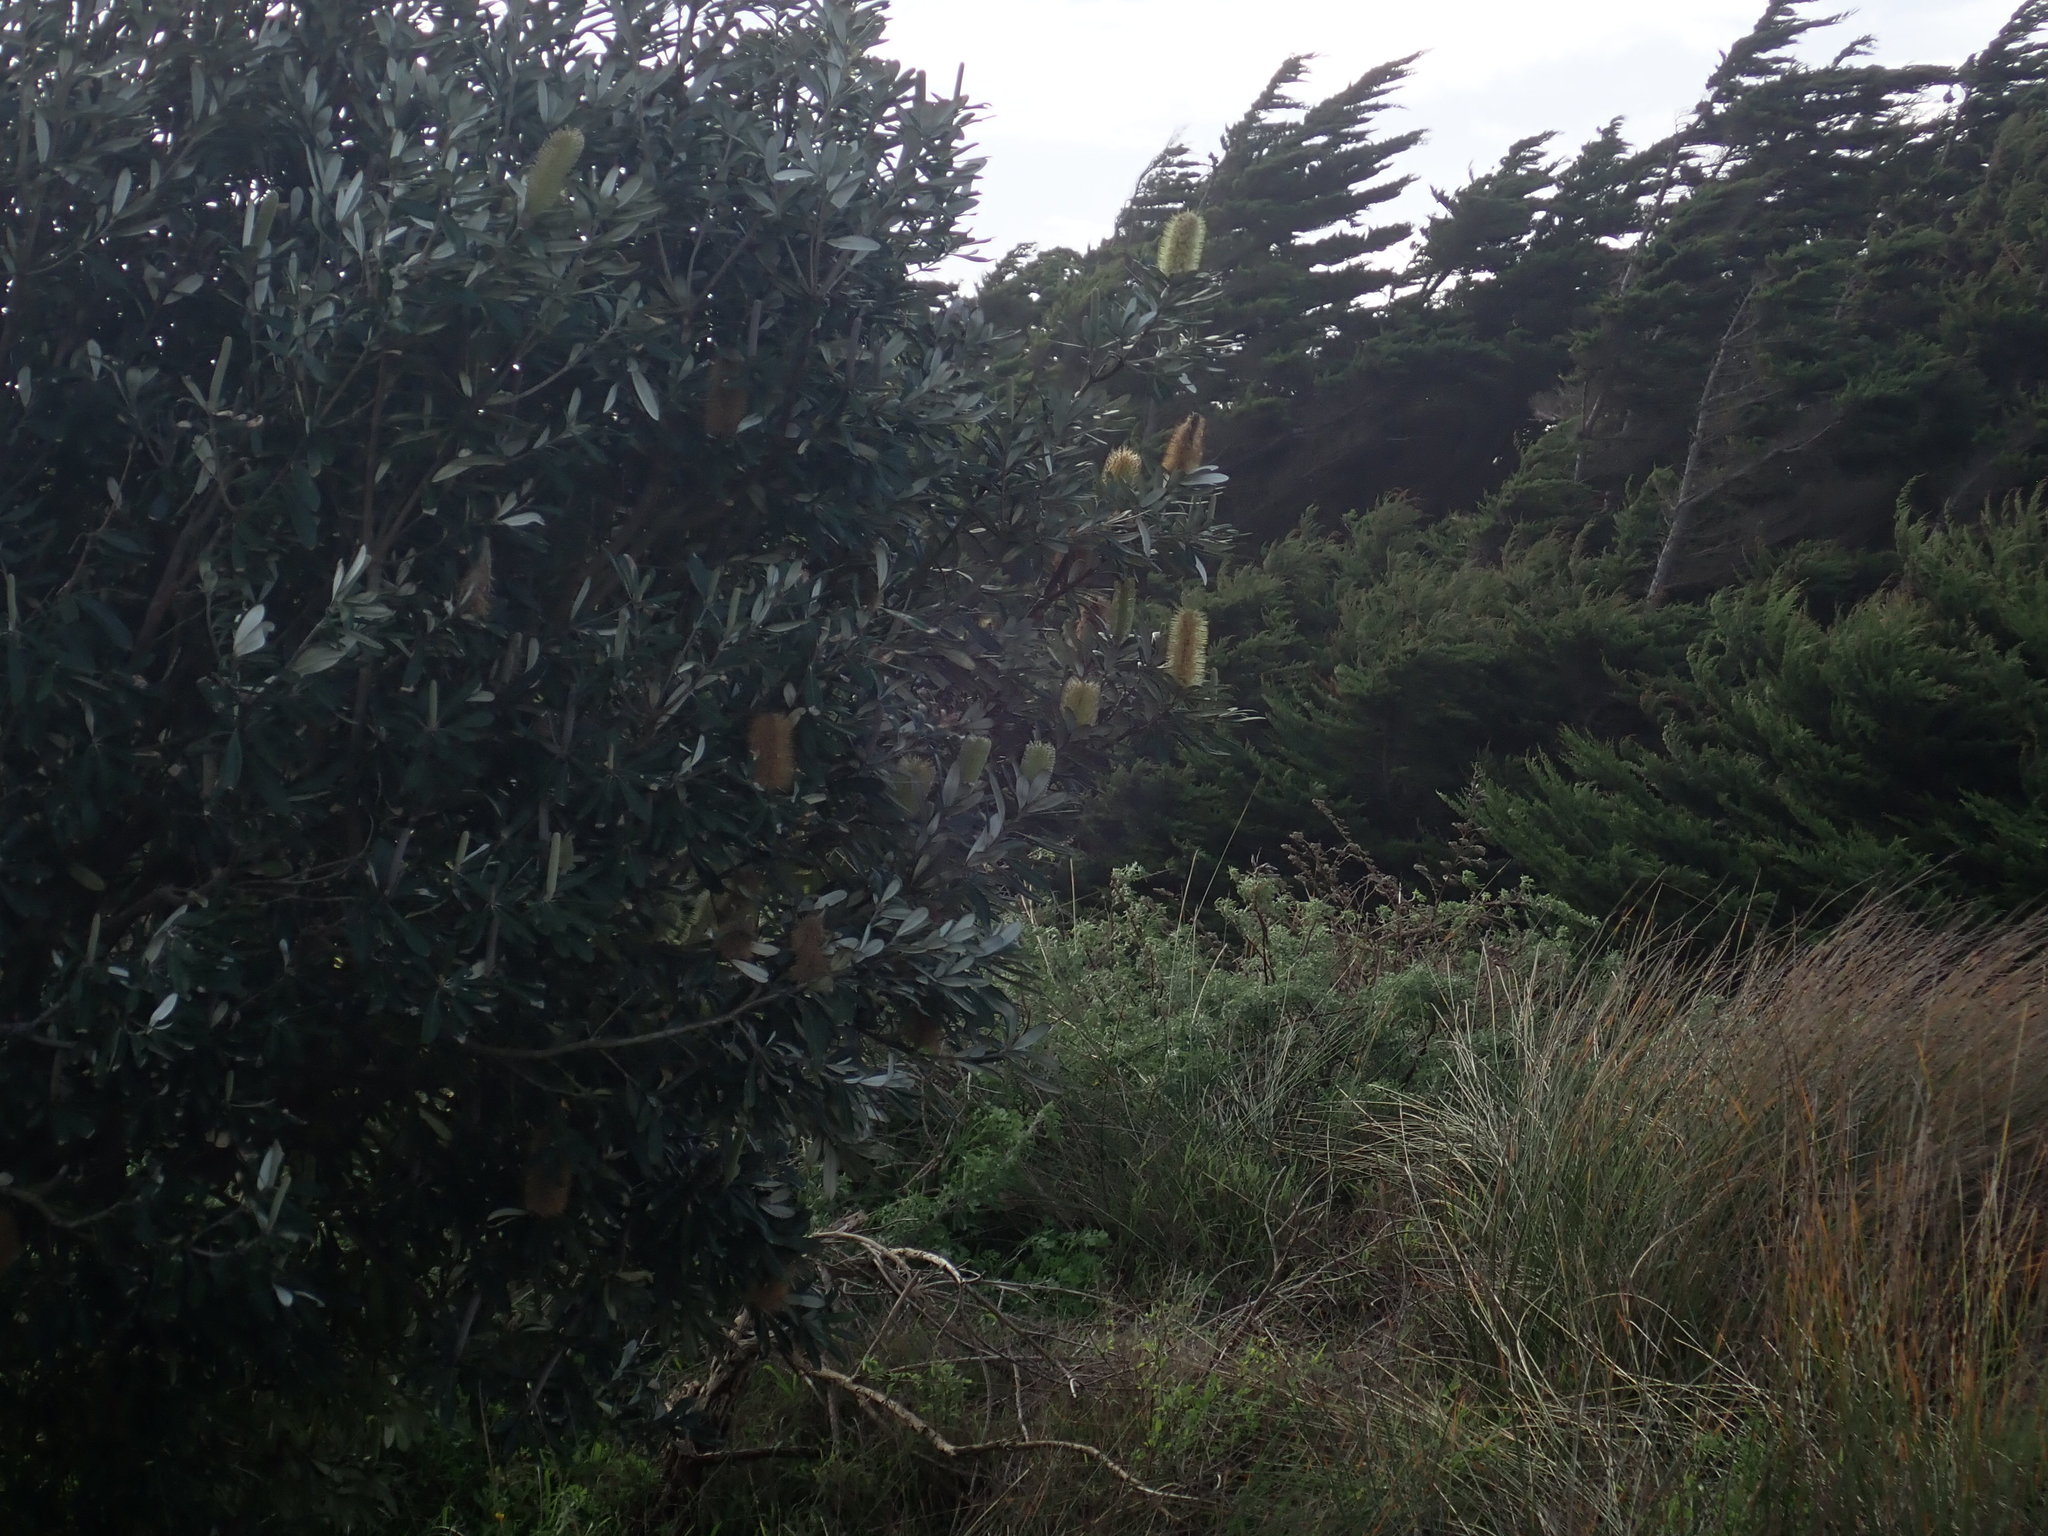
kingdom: Plantae
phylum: Tracheophyta
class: Magnoliopsida
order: Proteales
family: Proteaceae
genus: Banksia
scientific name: Banksia integrifolia
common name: White-honeysuckle
